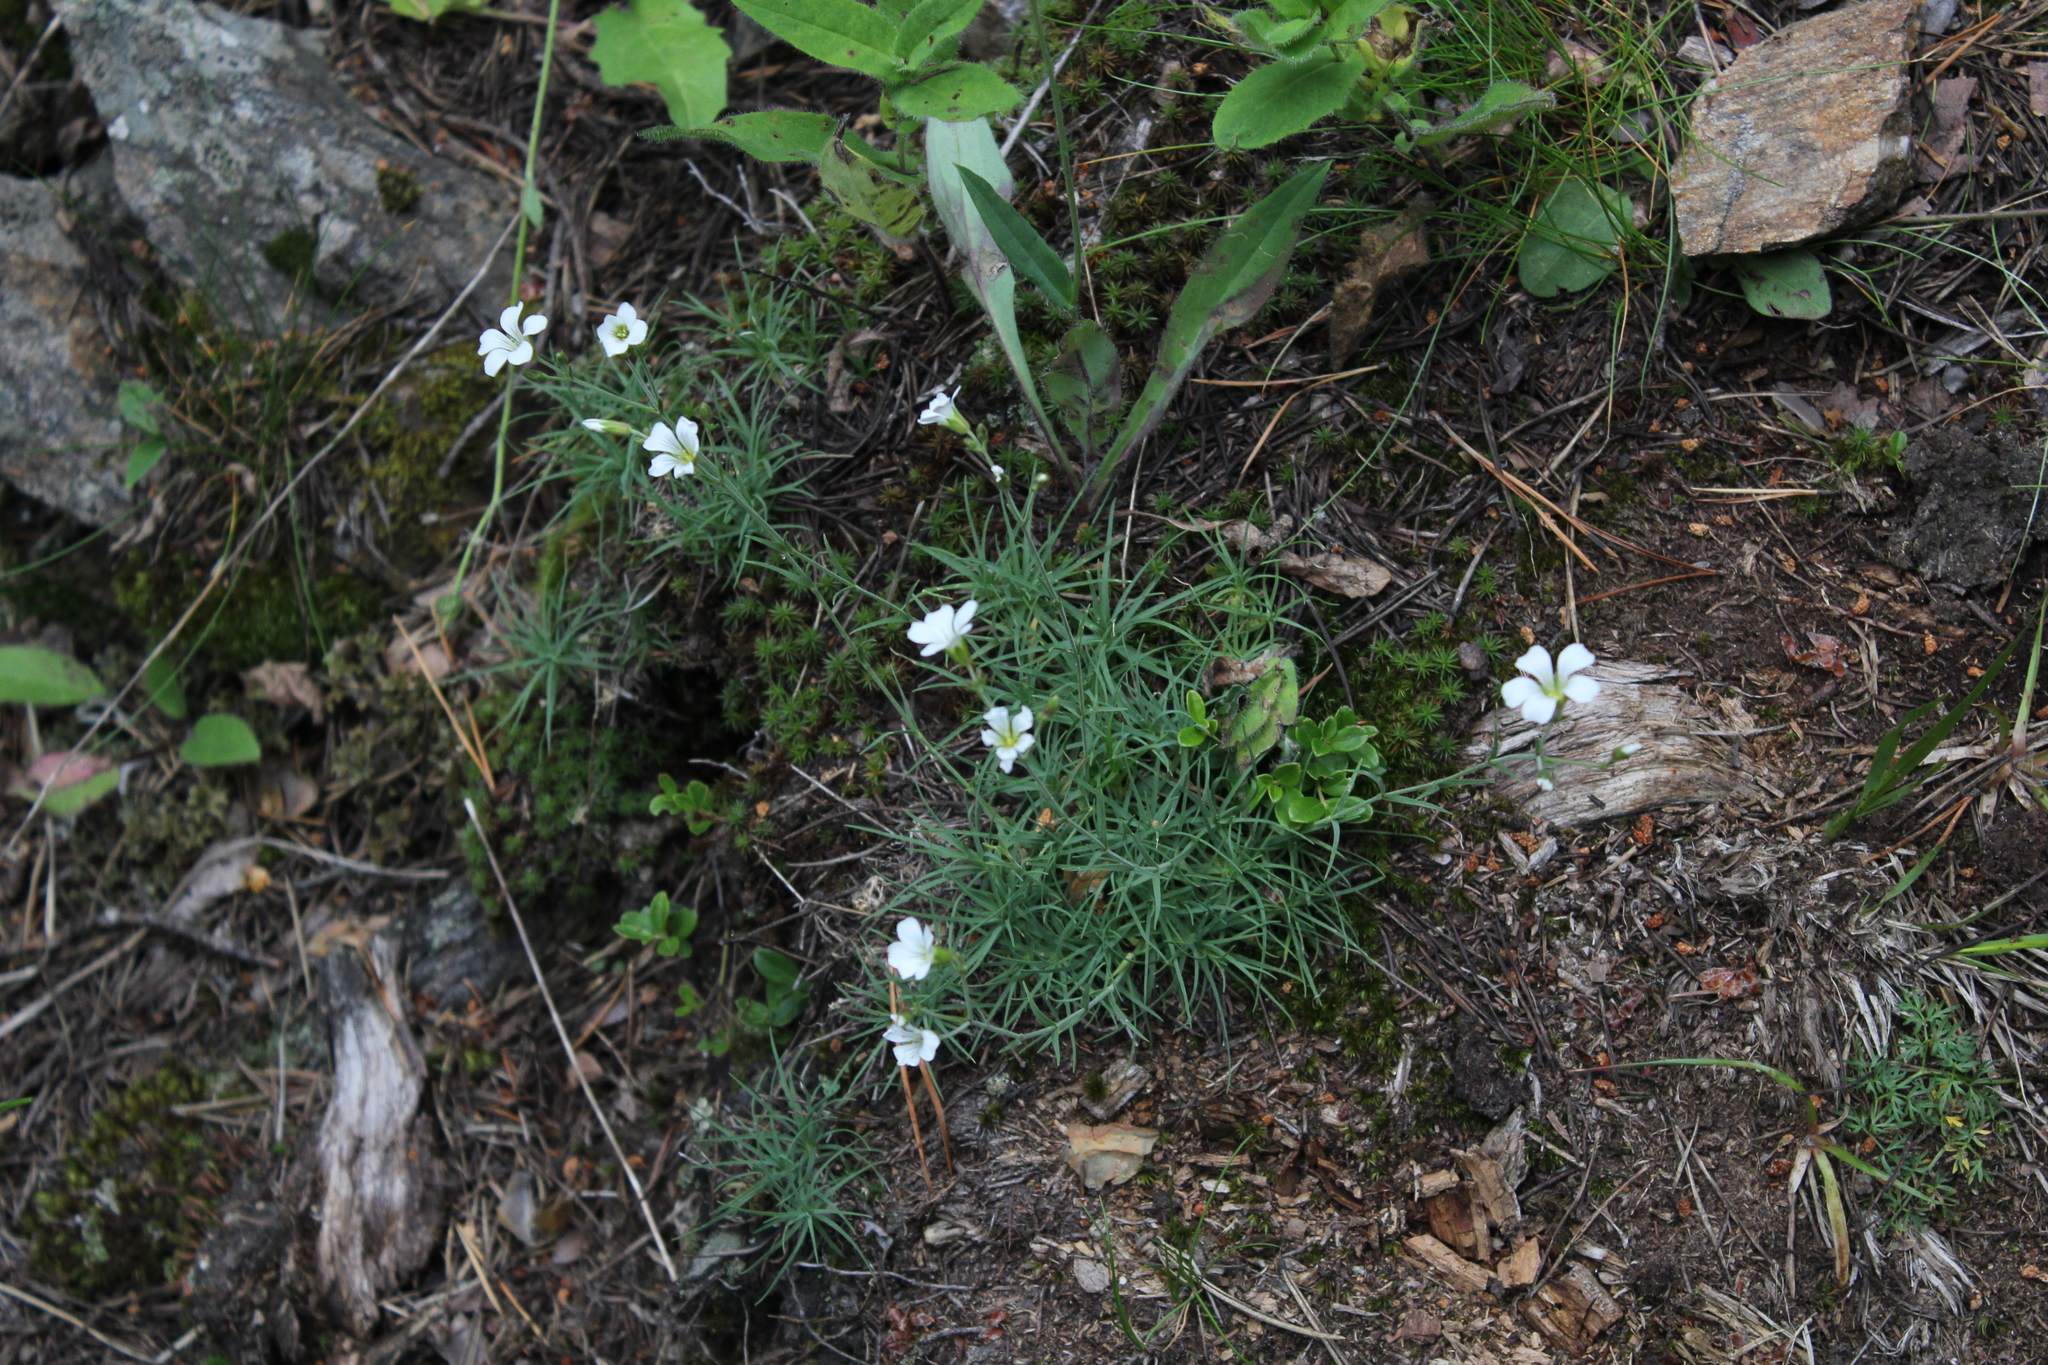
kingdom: Plantae
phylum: Tracheophyta
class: Magnoliopsida
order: Caryophyllales
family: Caryophyllaceae
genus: Cherleria
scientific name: Cherleria circassica
